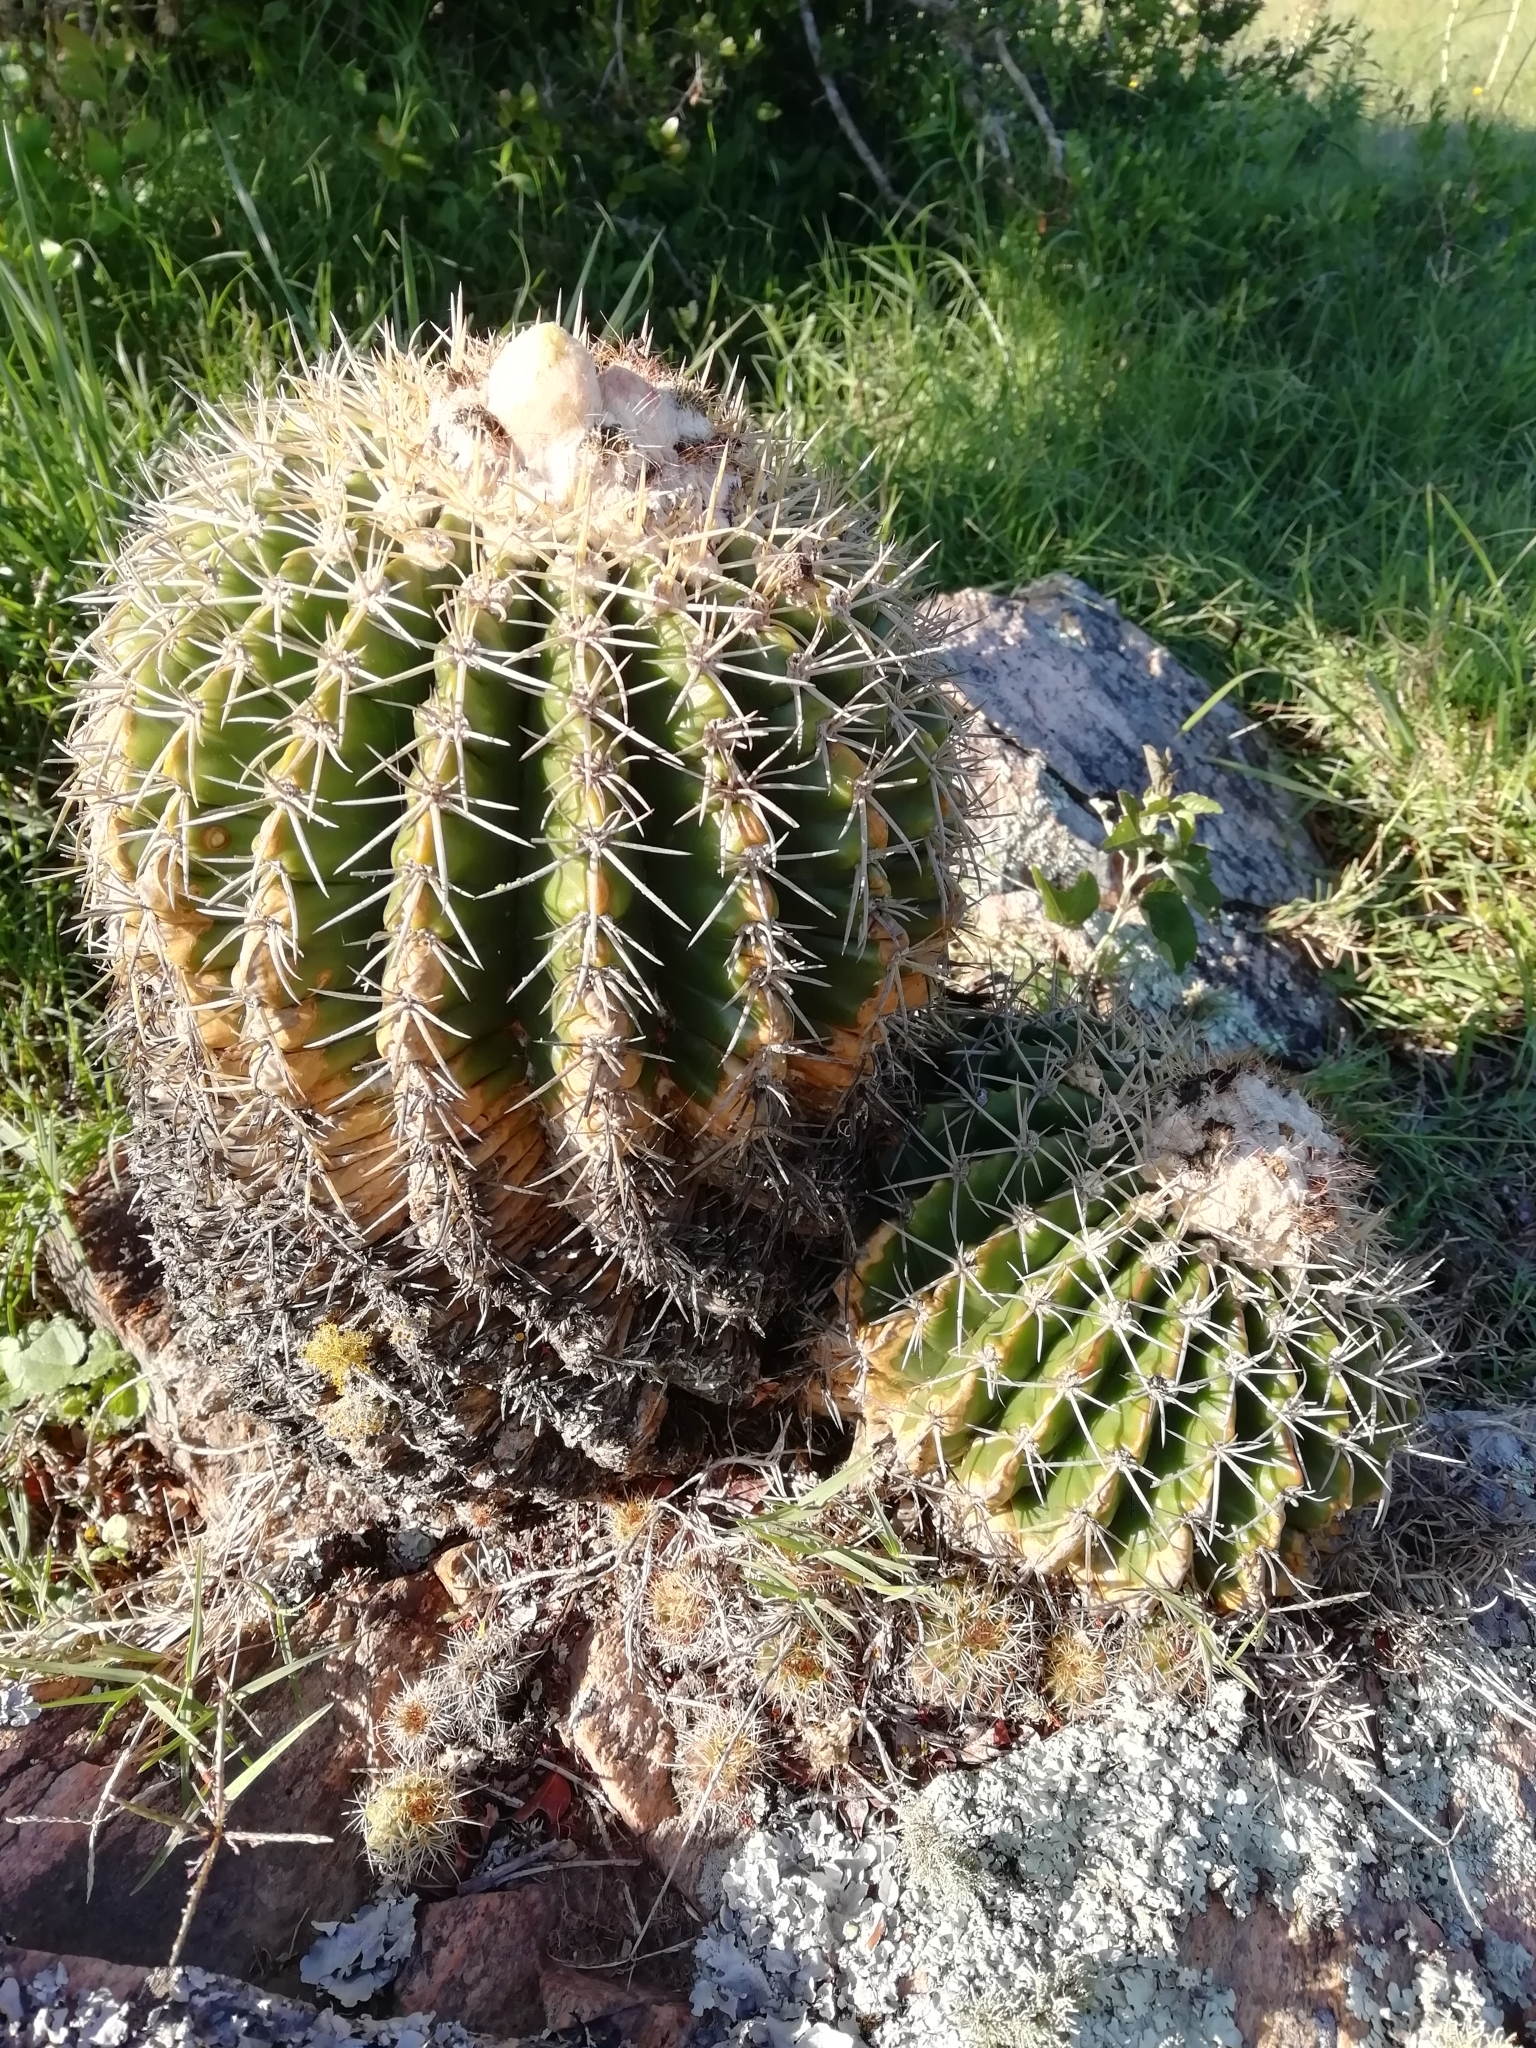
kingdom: Plantae
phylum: Tracheophyta
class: Magnoliopsida
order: Caryophyllales
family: Cactaceae
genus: Parodia
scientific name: Parodia langsdorfii
